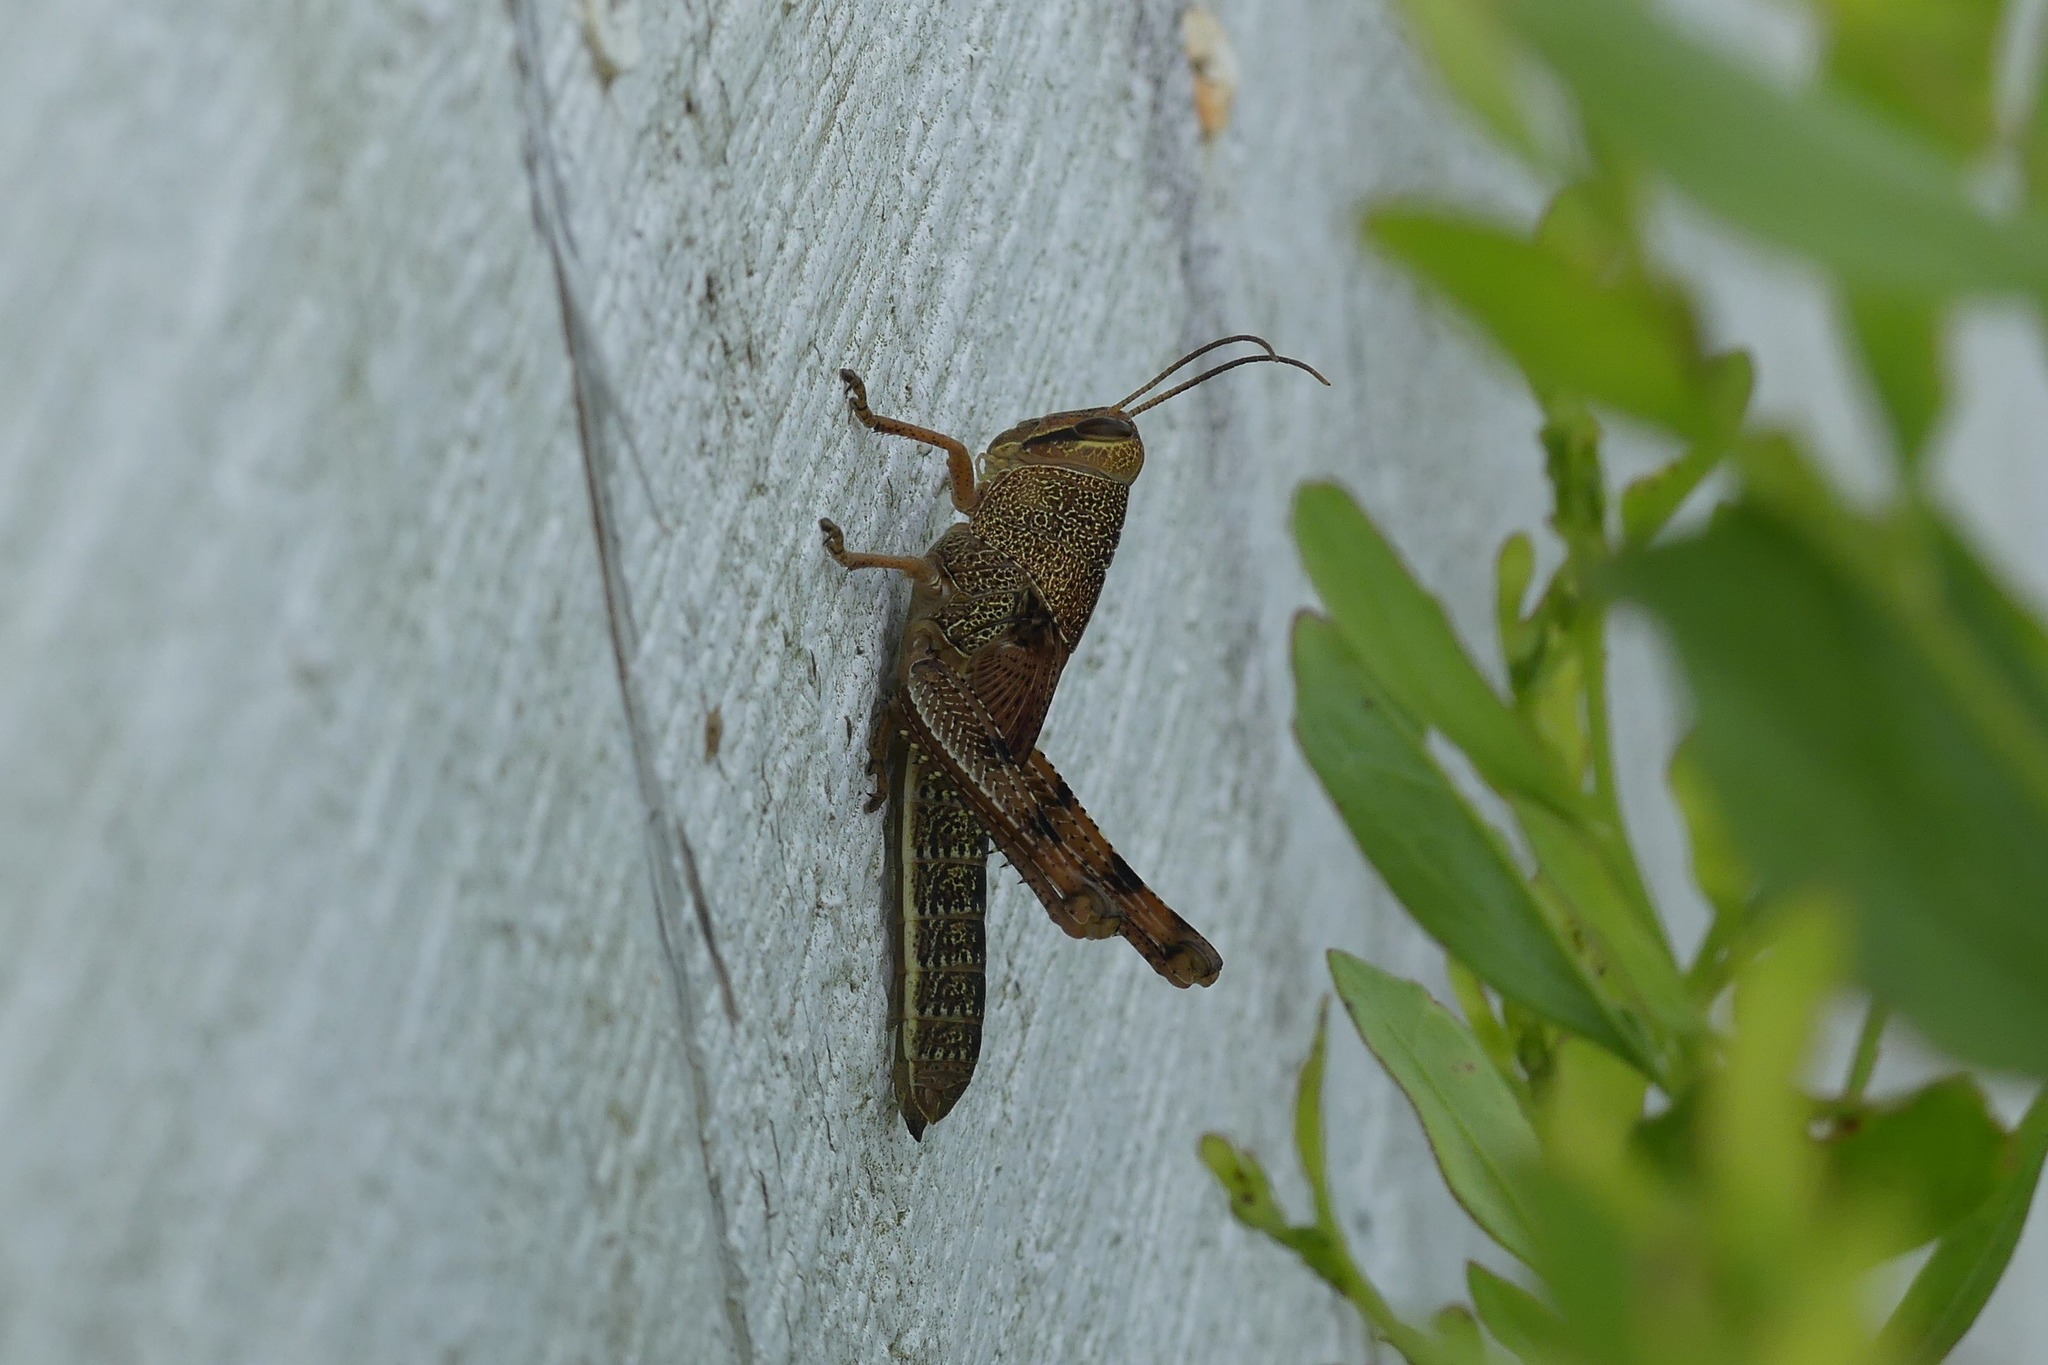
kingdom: Animalia
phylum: Arthropoda
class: Insecta
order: Orthoptera
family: Acrididae
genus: Schistocerca
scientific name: Schistocerca obscura
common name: Obscure bird grasshopper
